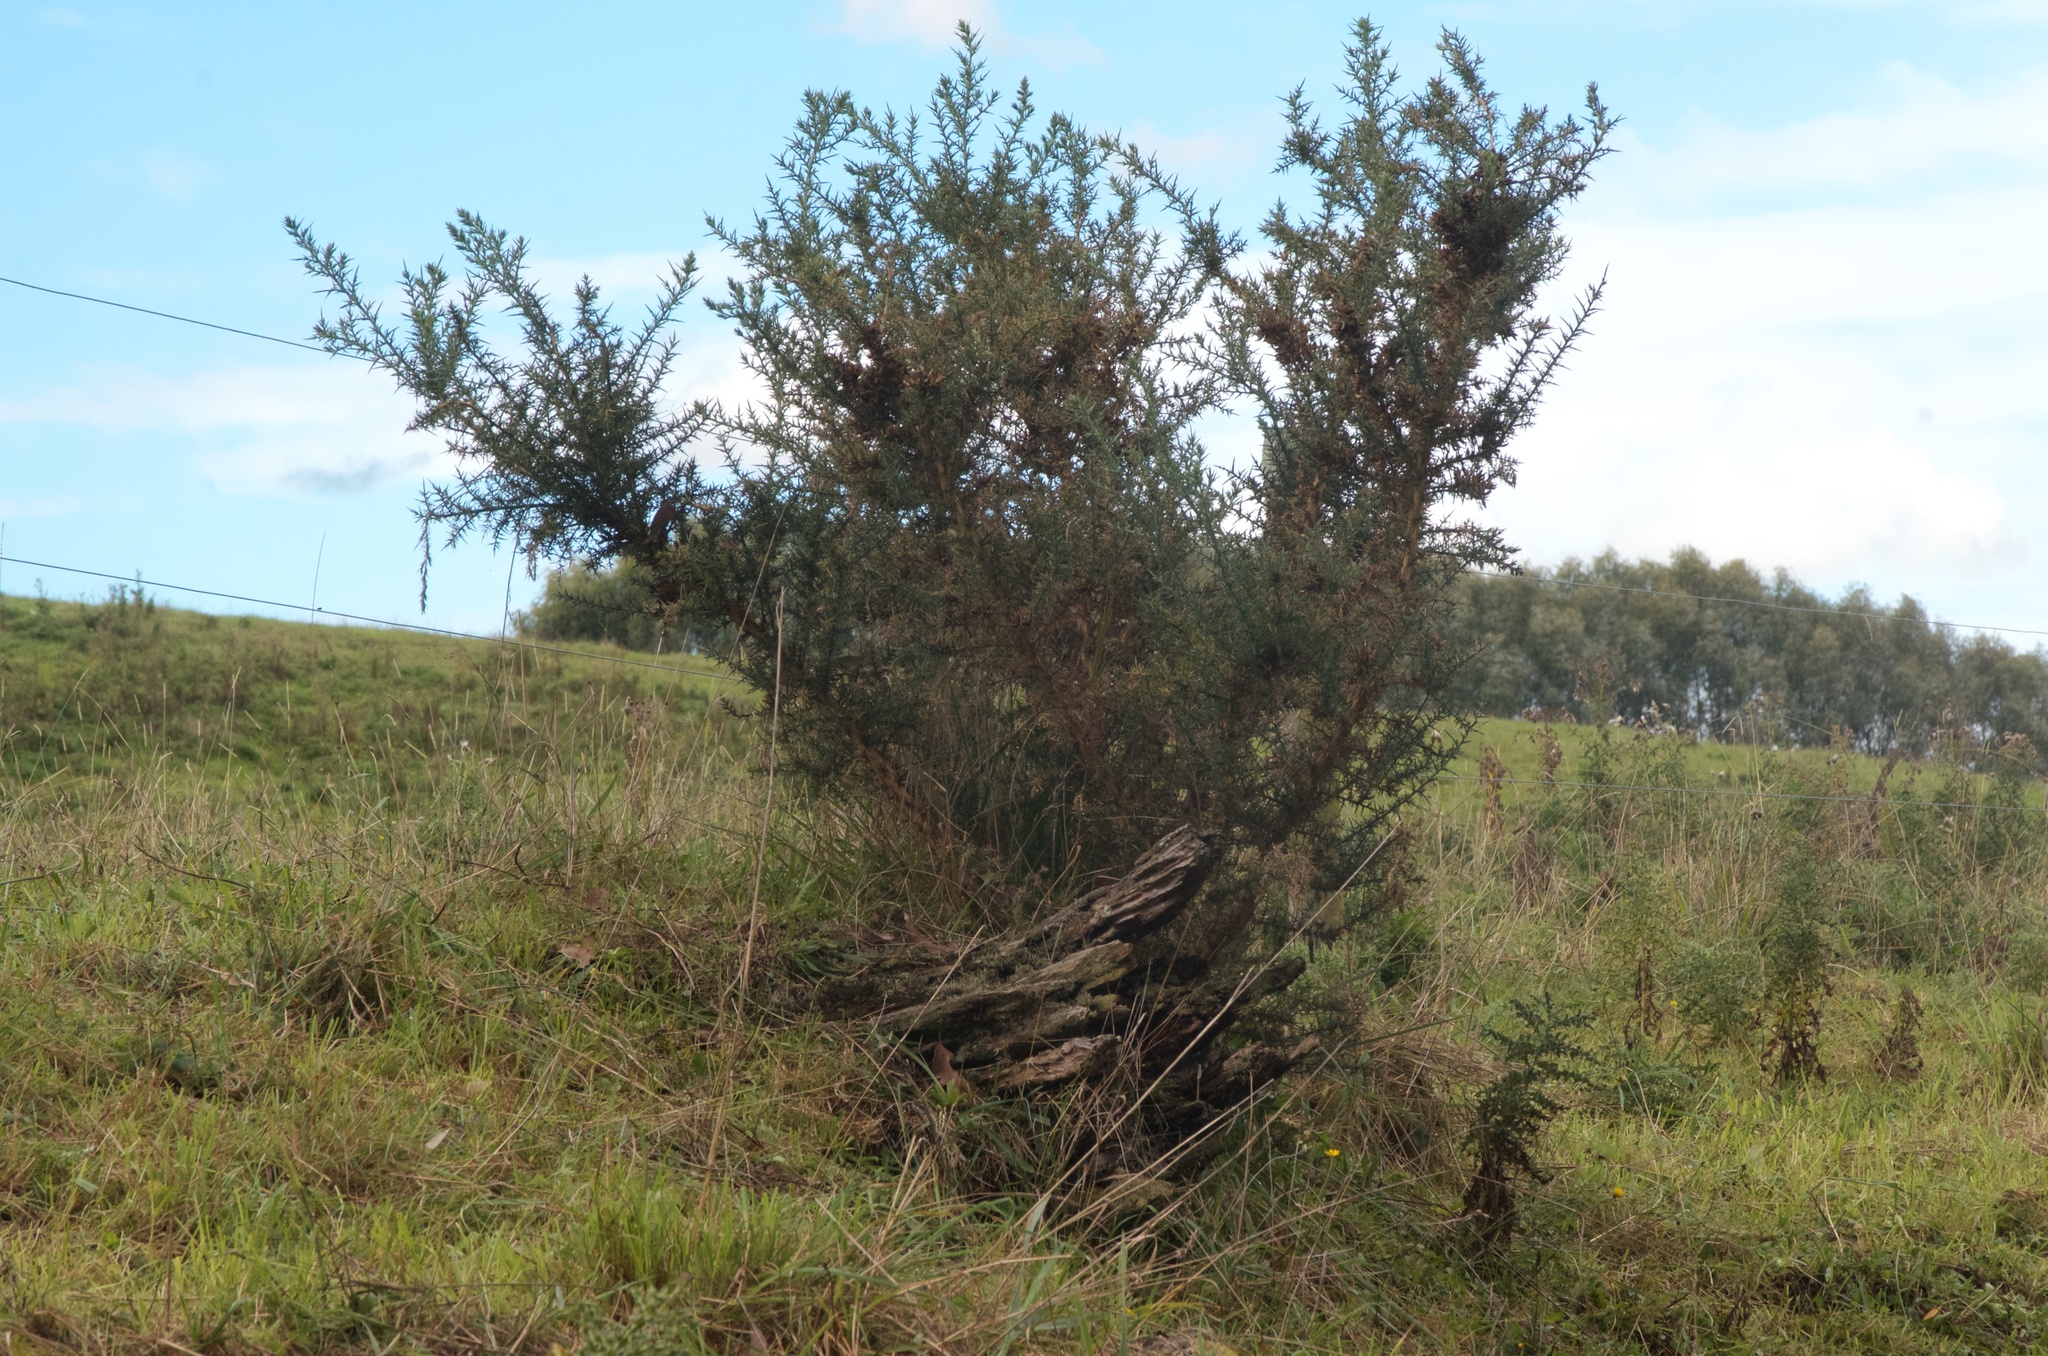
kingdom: Plantae
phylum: Tracheophyta
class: Magnoliopsida
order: Fabales
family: Fabaceae
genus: Ulex
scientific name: Ulex europaeus
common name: Common gorse
